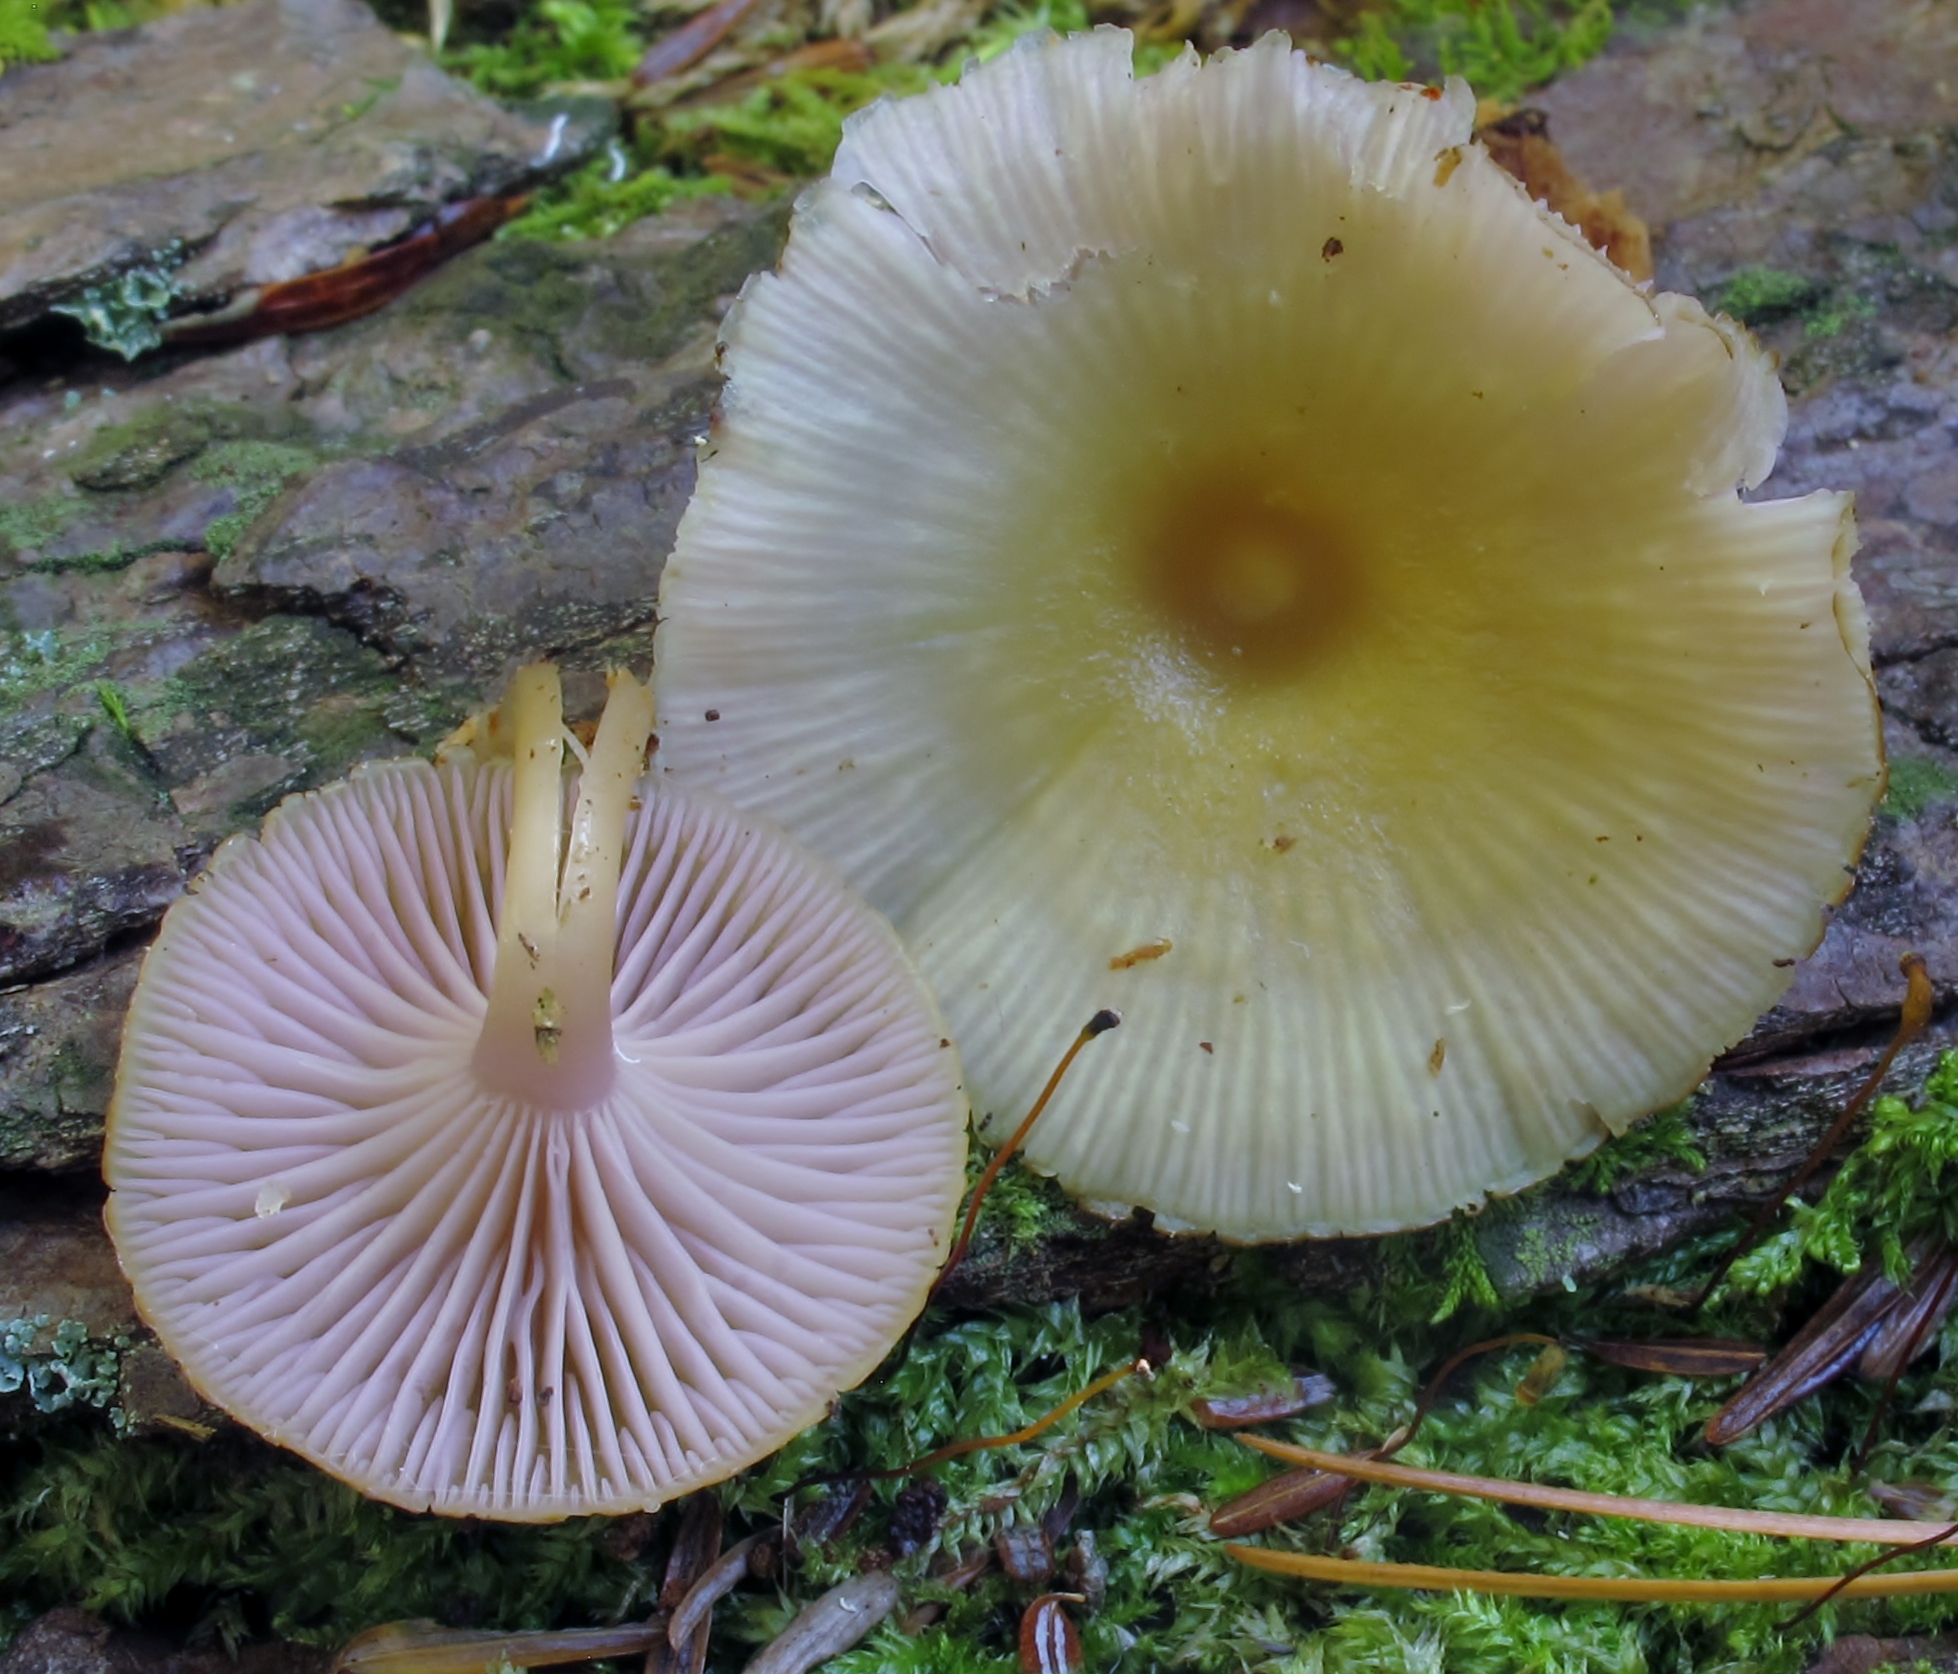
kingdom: Fungi
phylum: Basidiomycota
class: Agaricomycetes
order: Agaricales
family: Hygrophoraceae
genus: Chromosera
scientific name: Chromosera cyanophylla
